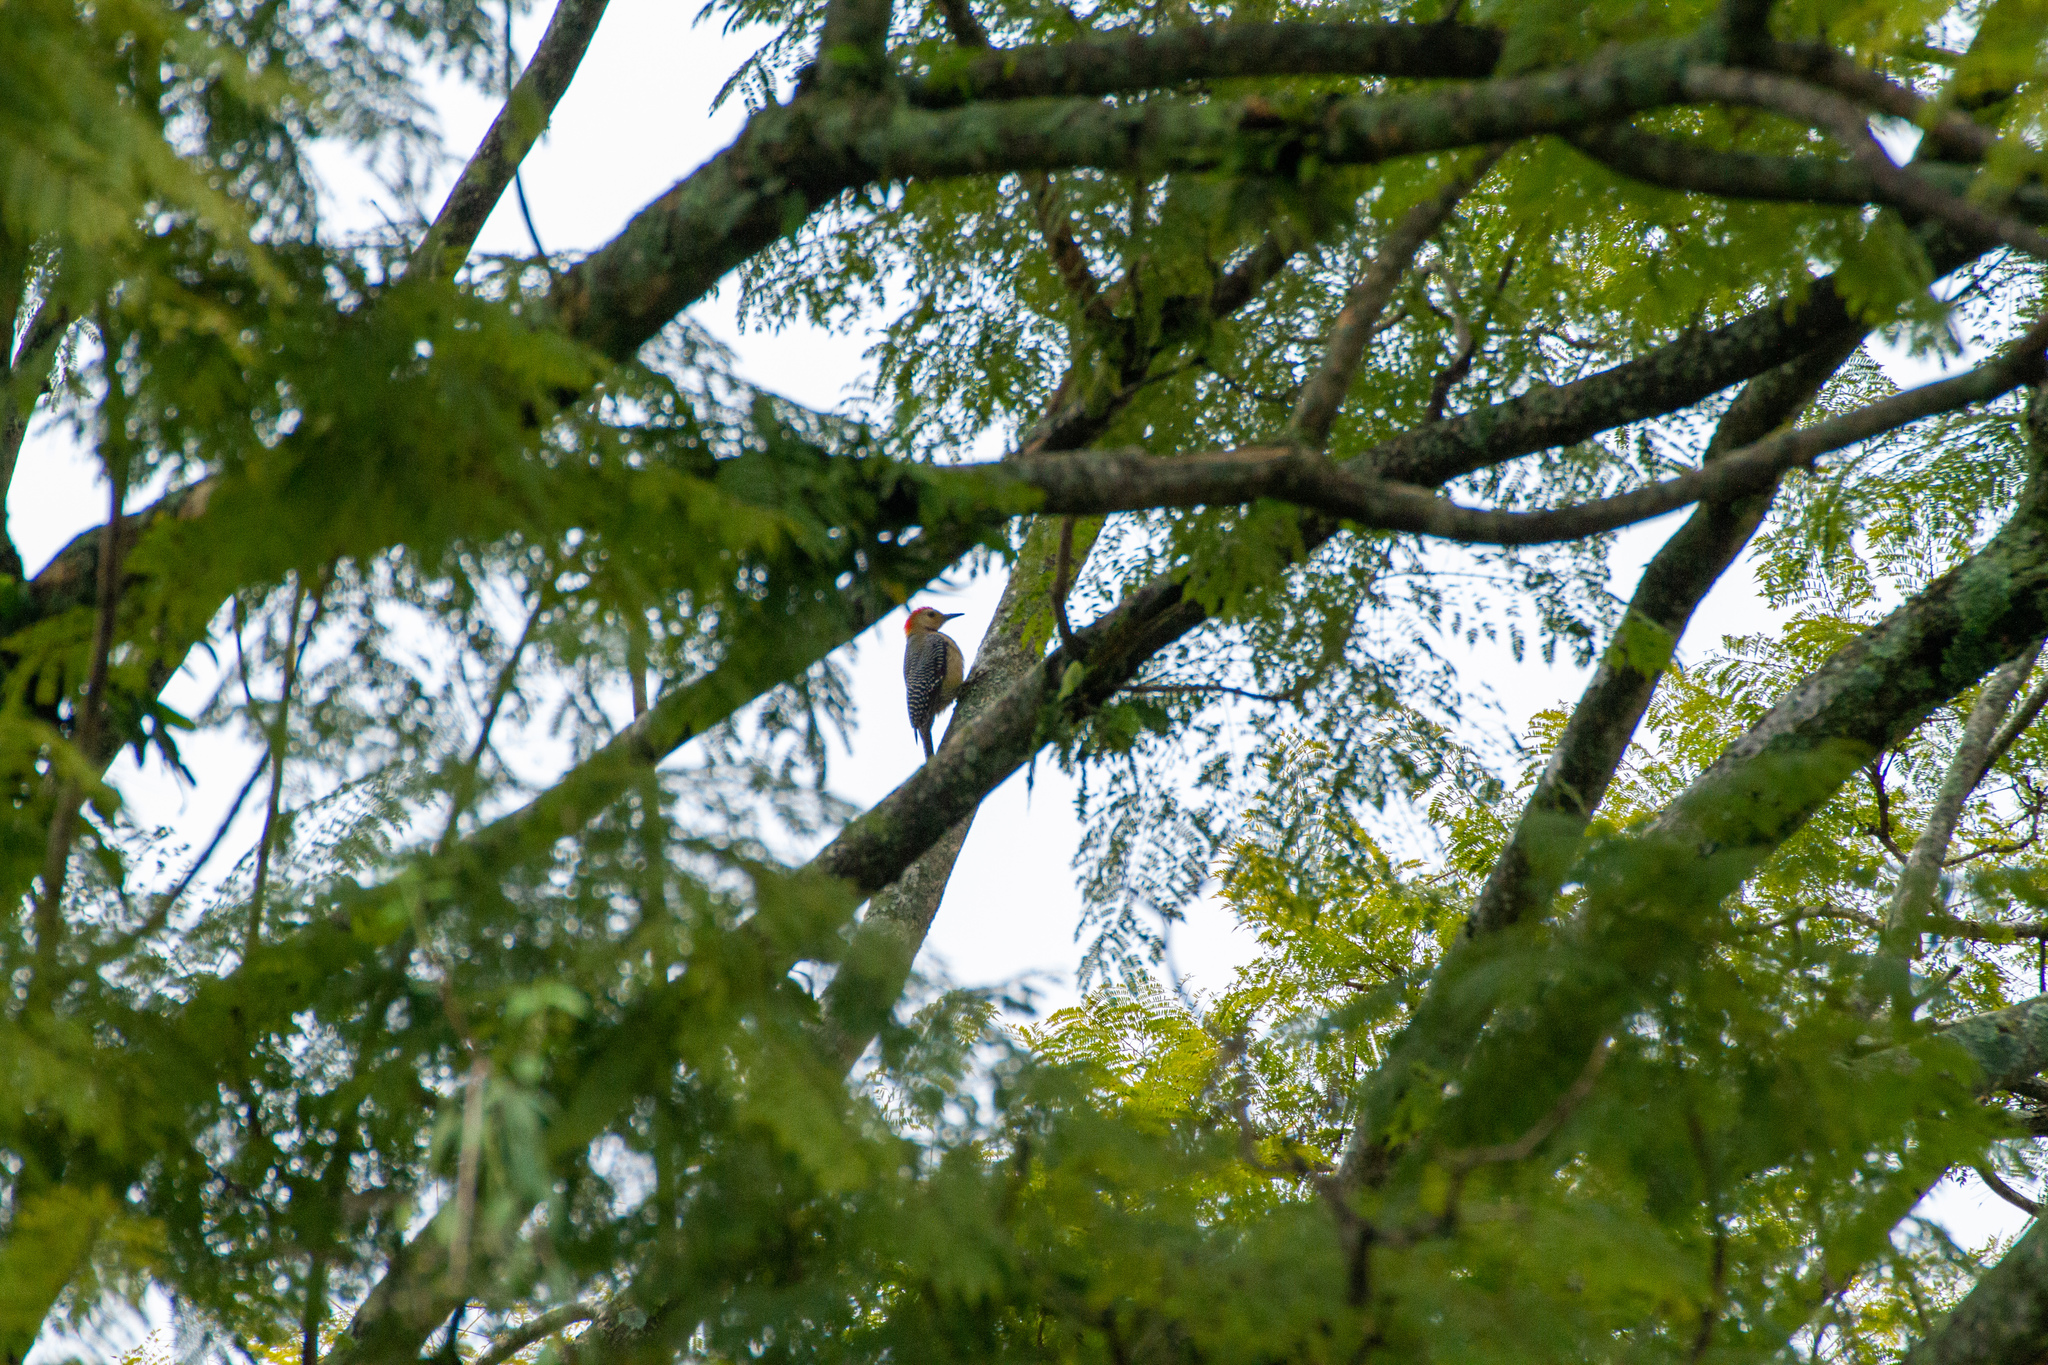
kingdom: Animalia
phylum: Chordata
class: Aves
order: Piciformes
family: Picidae
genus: Melanerpes
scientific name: Melanerpes aurifrons
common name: Golden-fronted woodpecker
